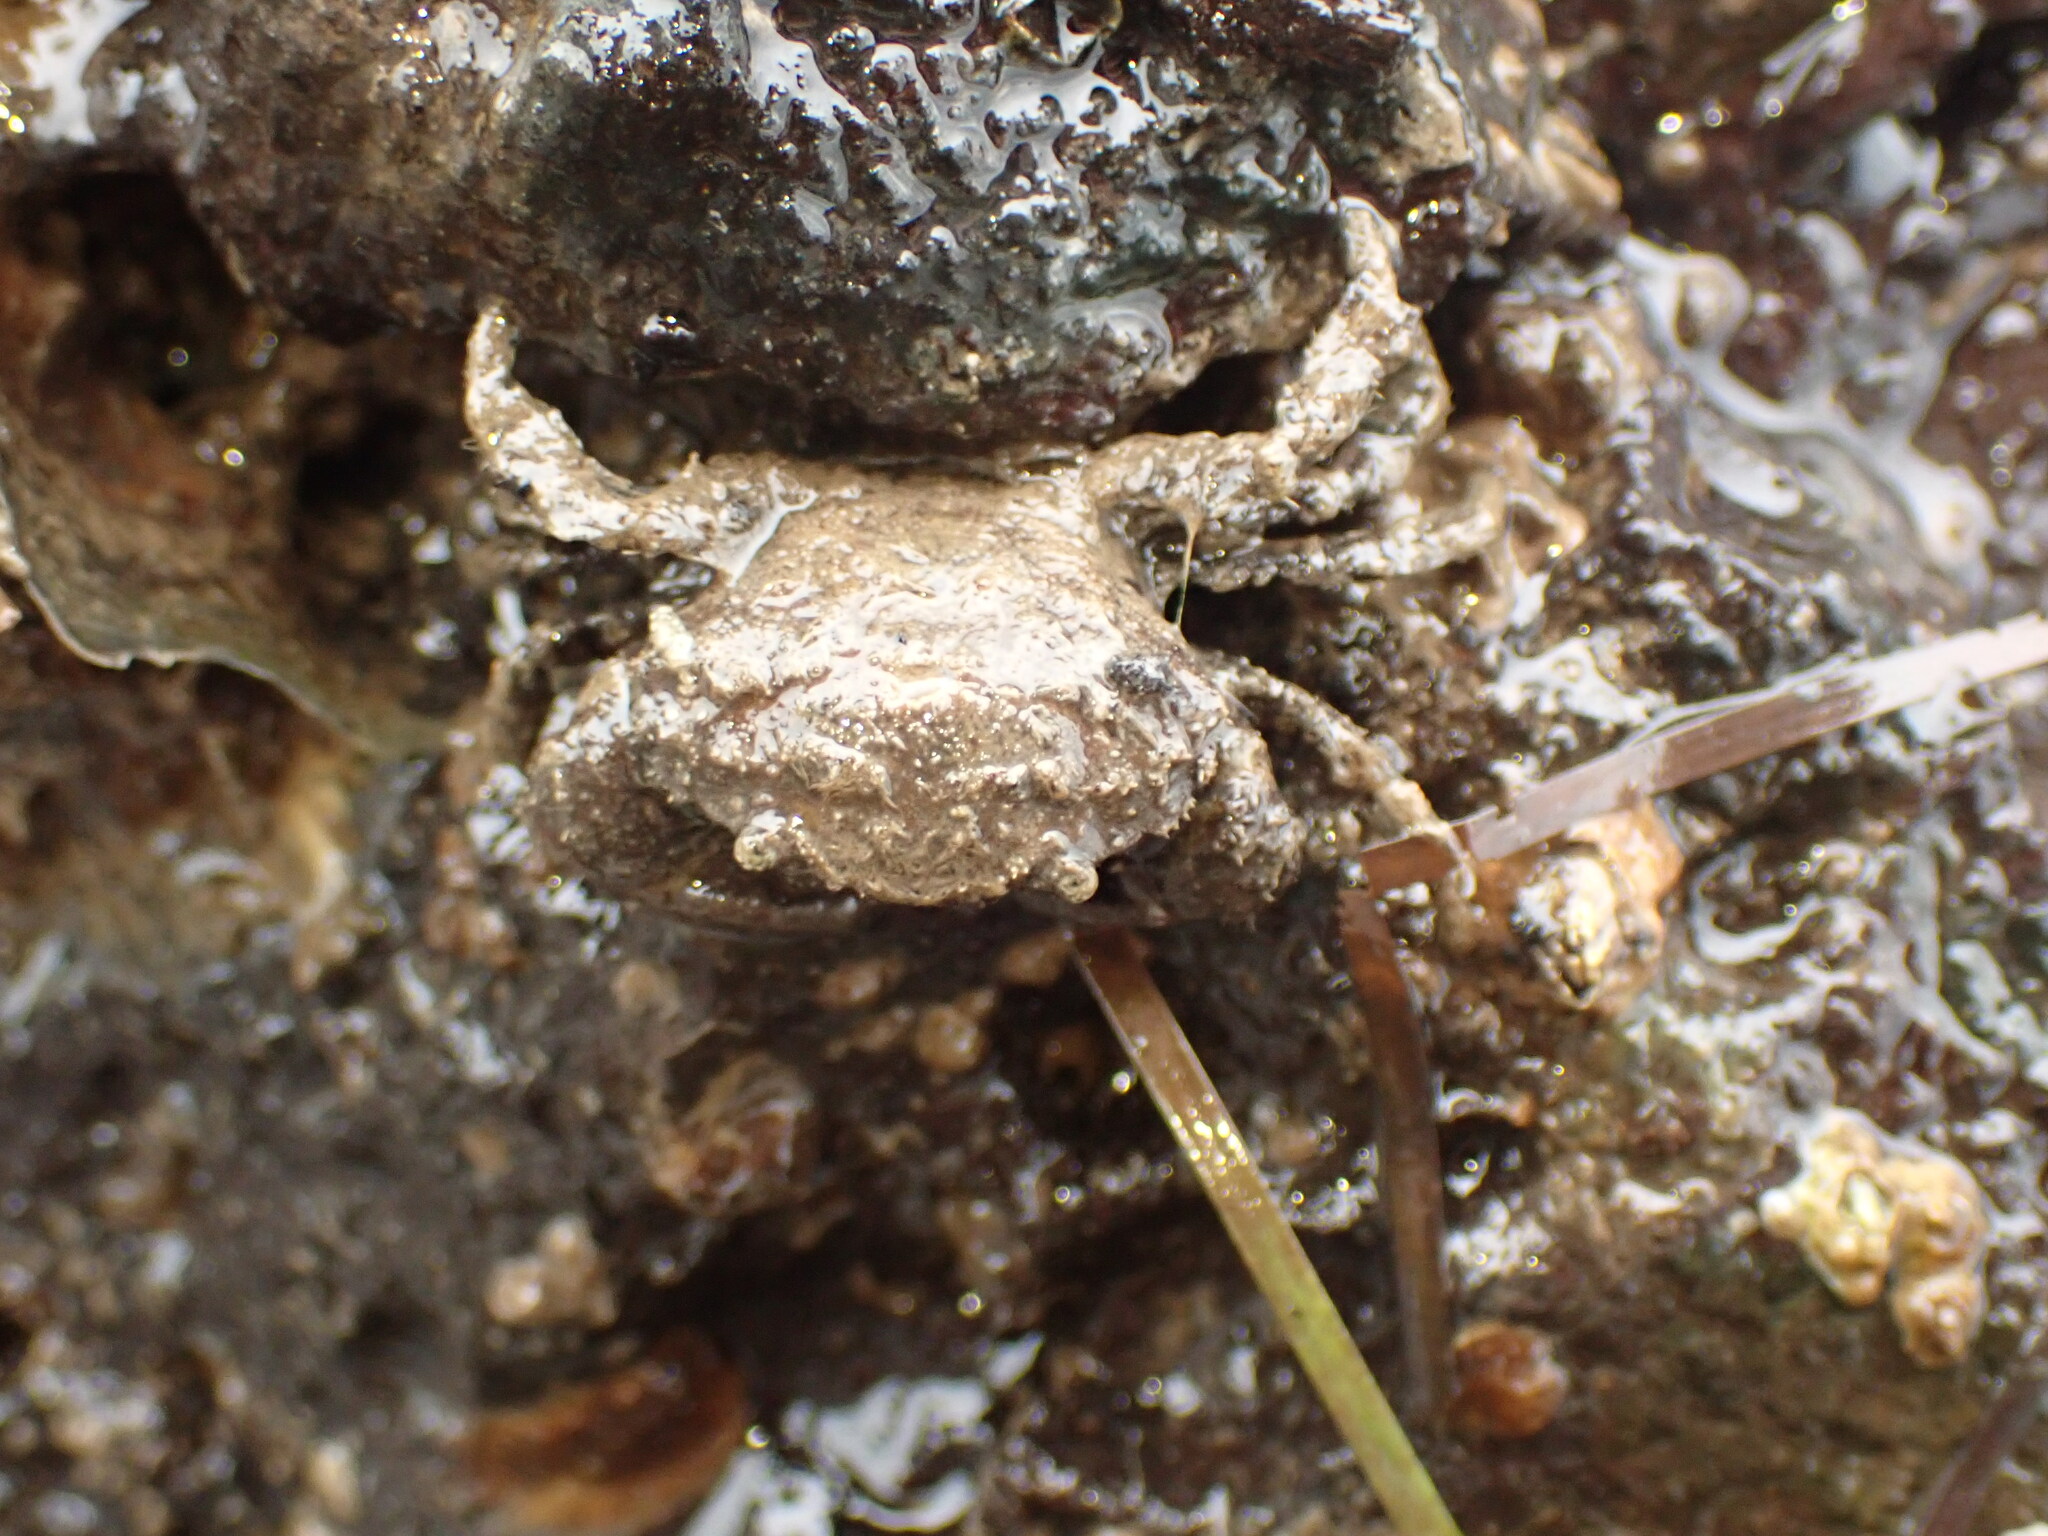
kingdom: Animalia
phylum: Arthropoda
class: Malacostraca
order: Decapoda
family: Pilumnidae
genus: Pilumnopeus
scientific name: Pilumnopeus serratifrons
